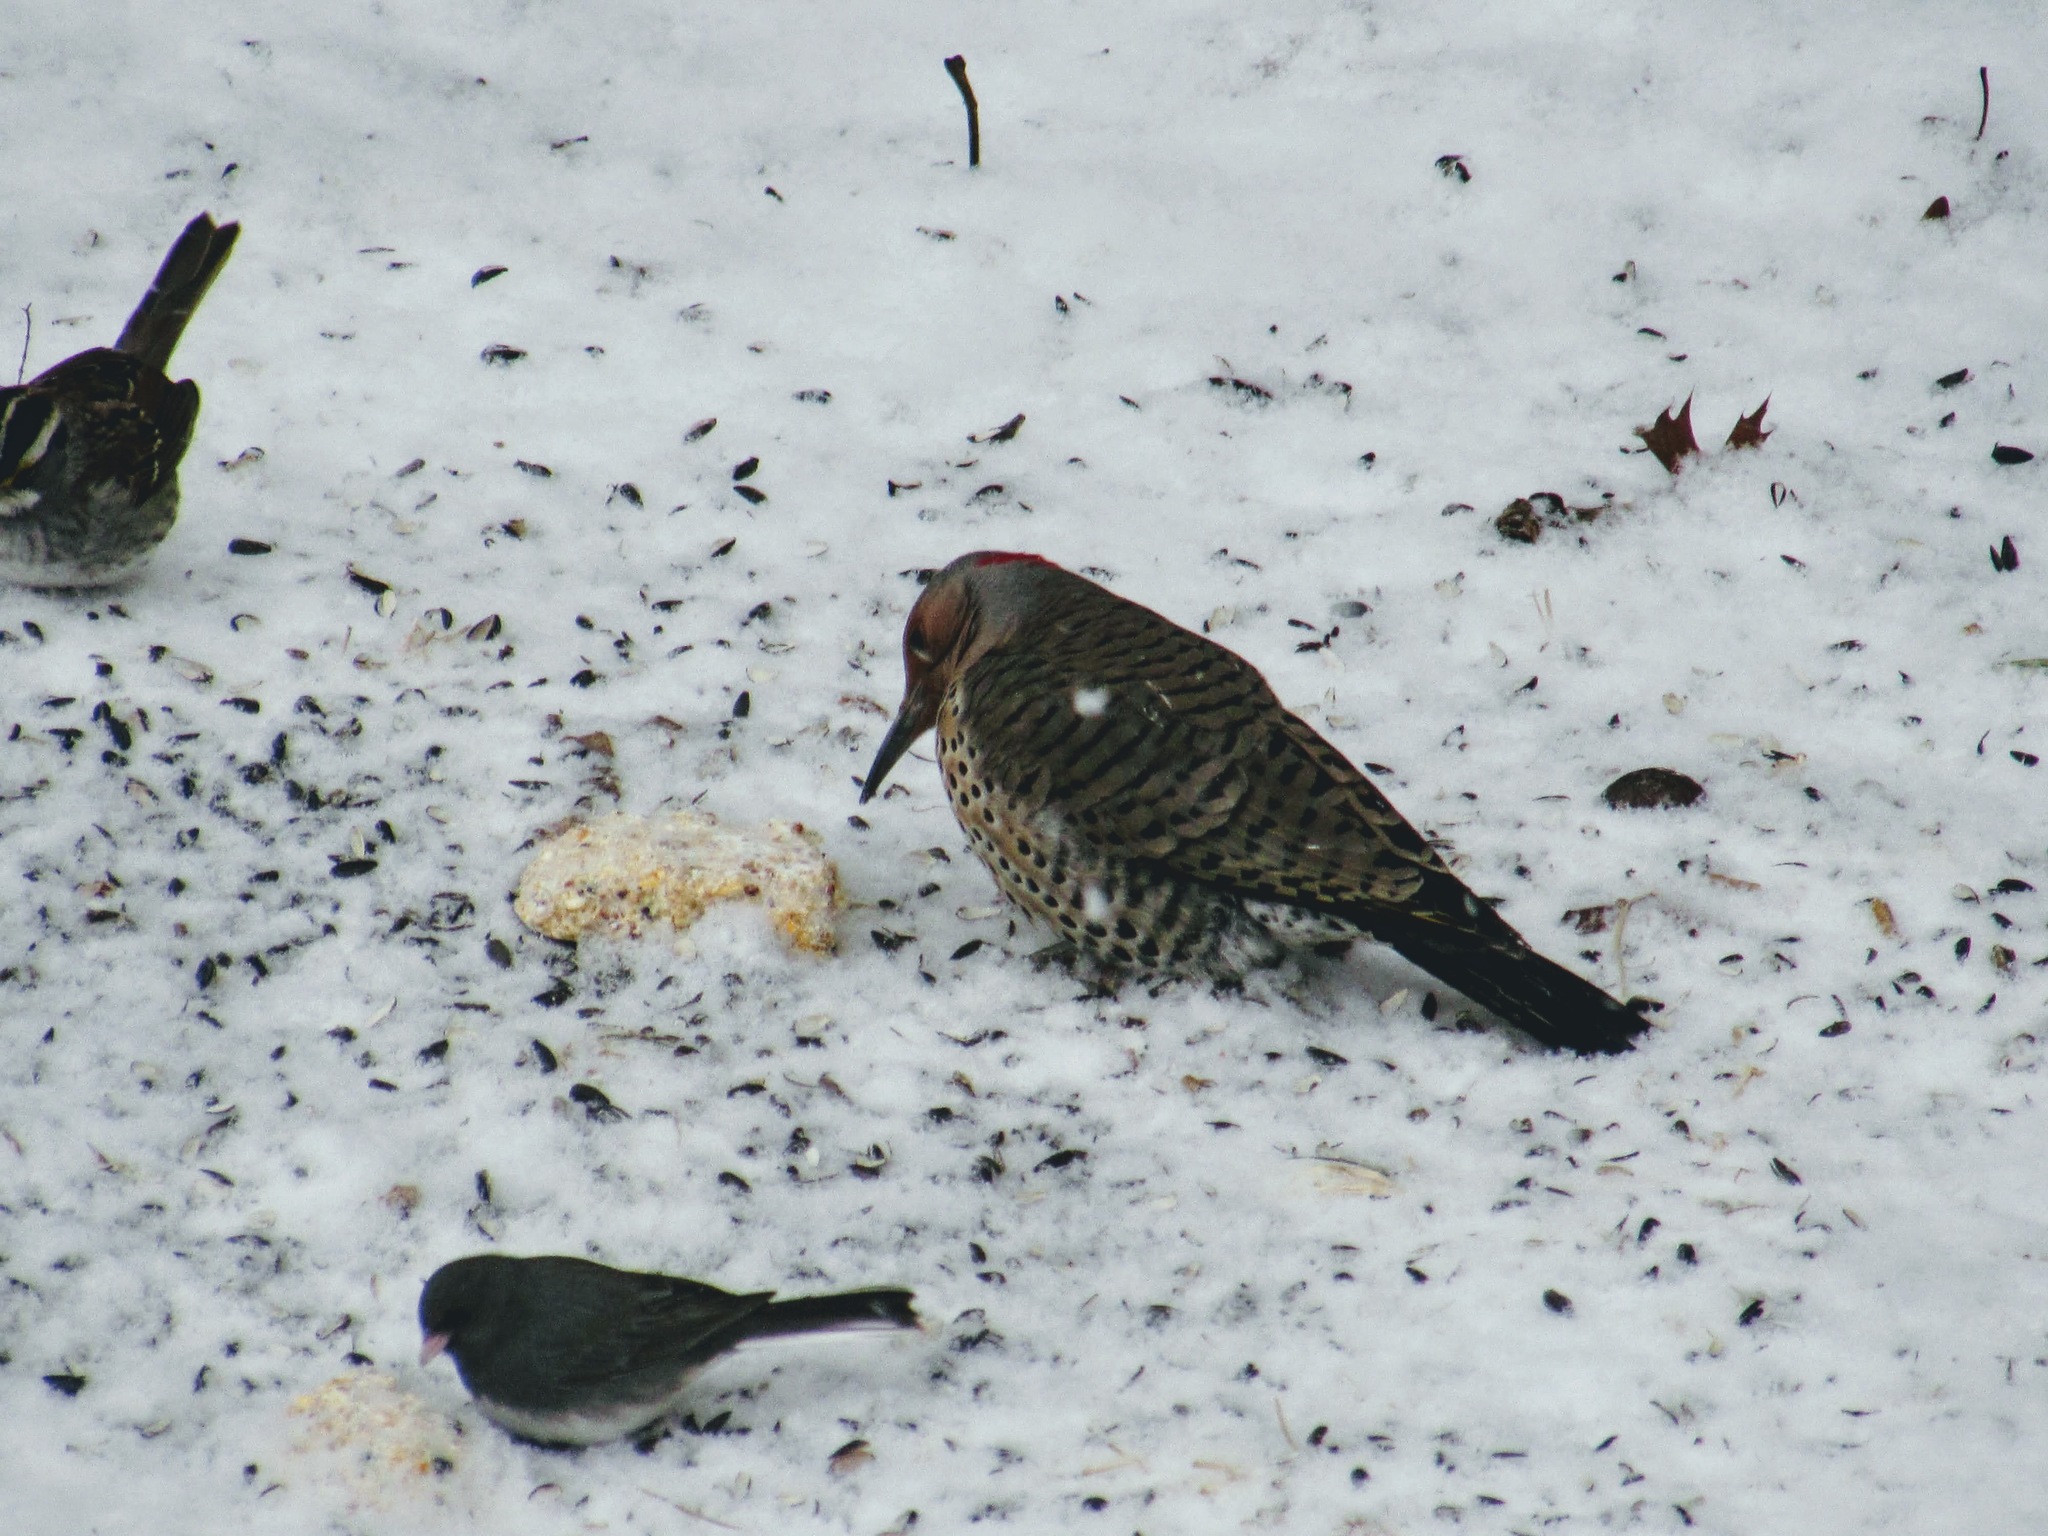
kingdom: Animalia
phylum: Chordata
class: Aves
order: Piciformes
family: Picidae
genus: Colaptes
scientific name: Colaptes auratus
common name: Northern flicker
